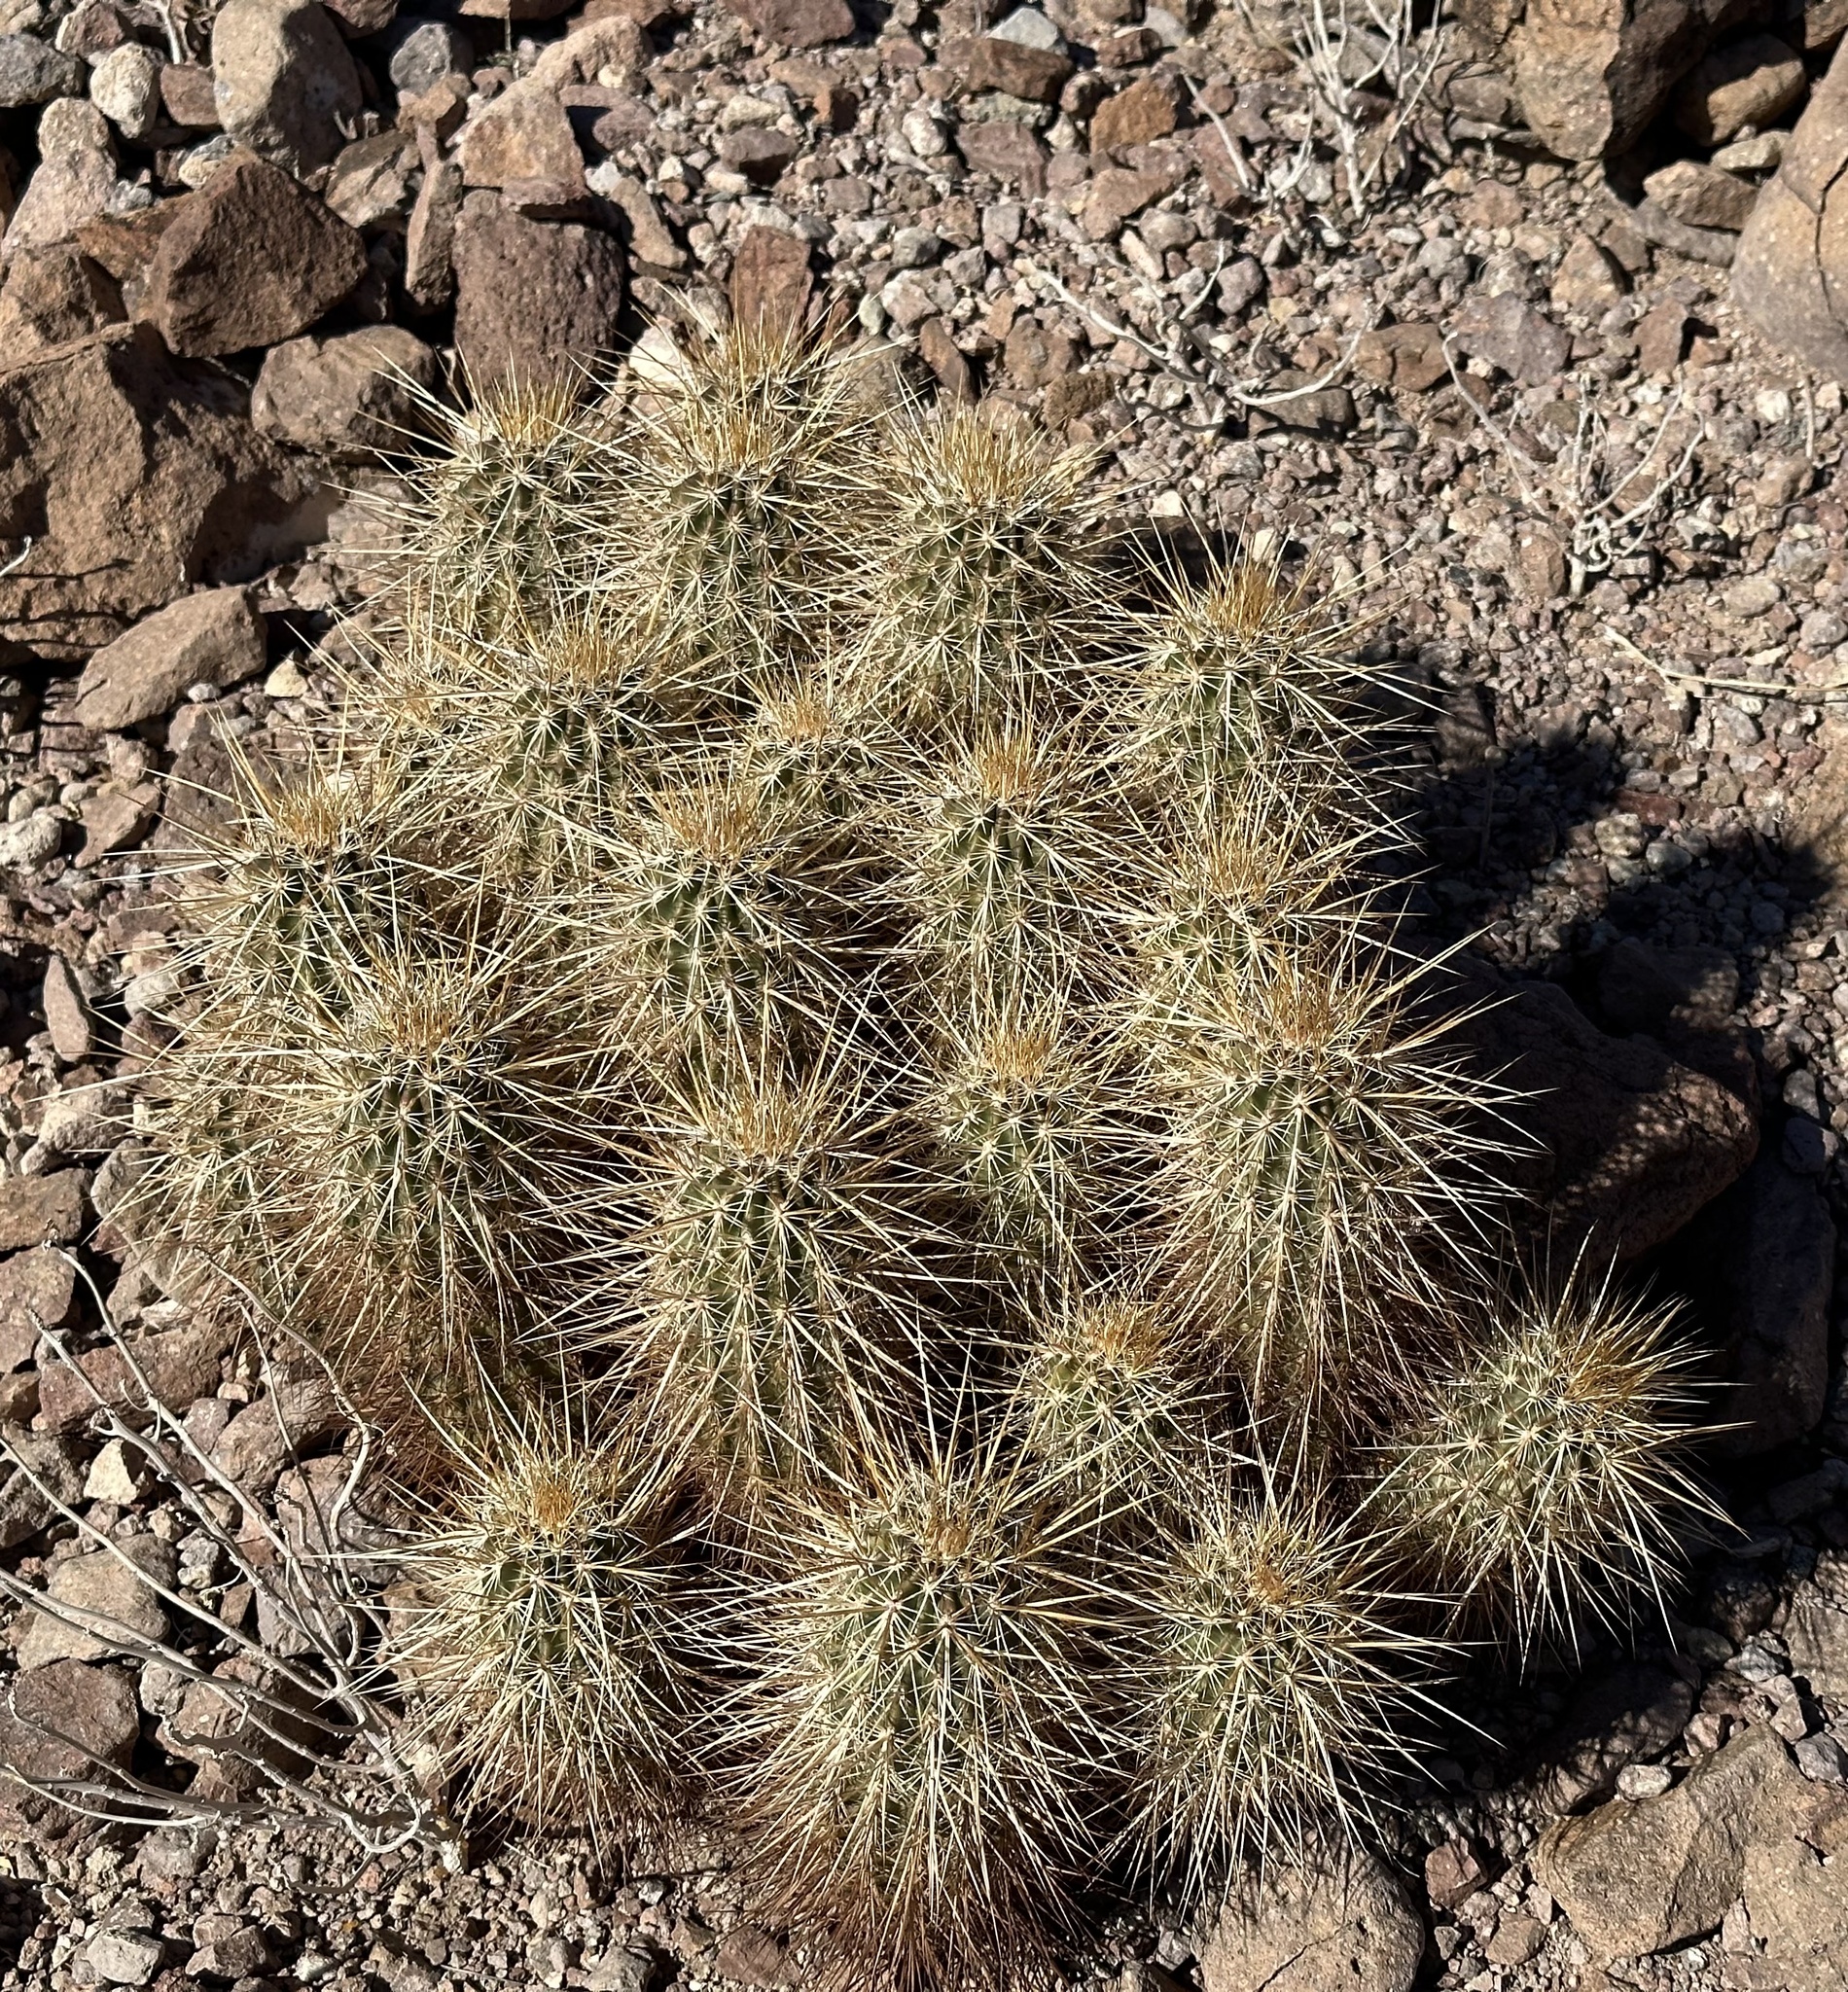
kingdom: Plantae
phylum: Tracheophyta
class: Magnoliopsida
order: Caryophyllales
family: Cactaceae
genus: Echinocereus
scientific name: Echinocereus engelmannii
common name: Engelmann's hedgehog cactus
